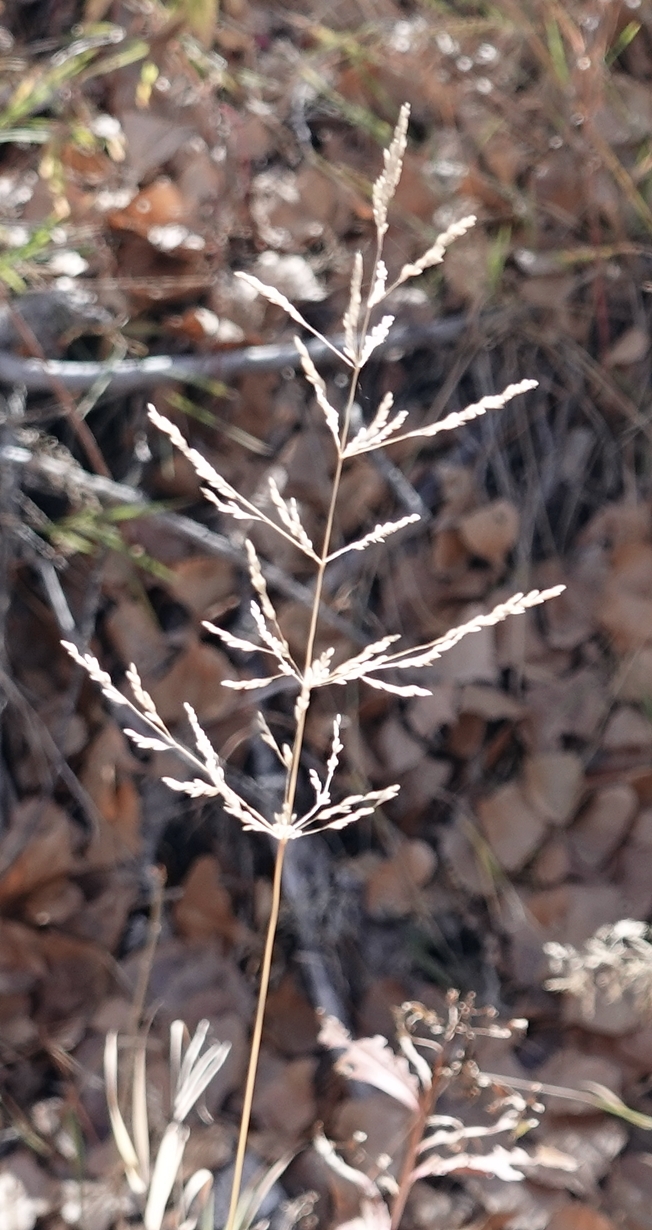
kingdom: Plantae
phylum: Tracheophyta
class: Liliopsida
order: Poales
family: Poaceae
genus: Sporobolus
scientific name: Sporobolus cryptandrus
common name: Sand dropseed
